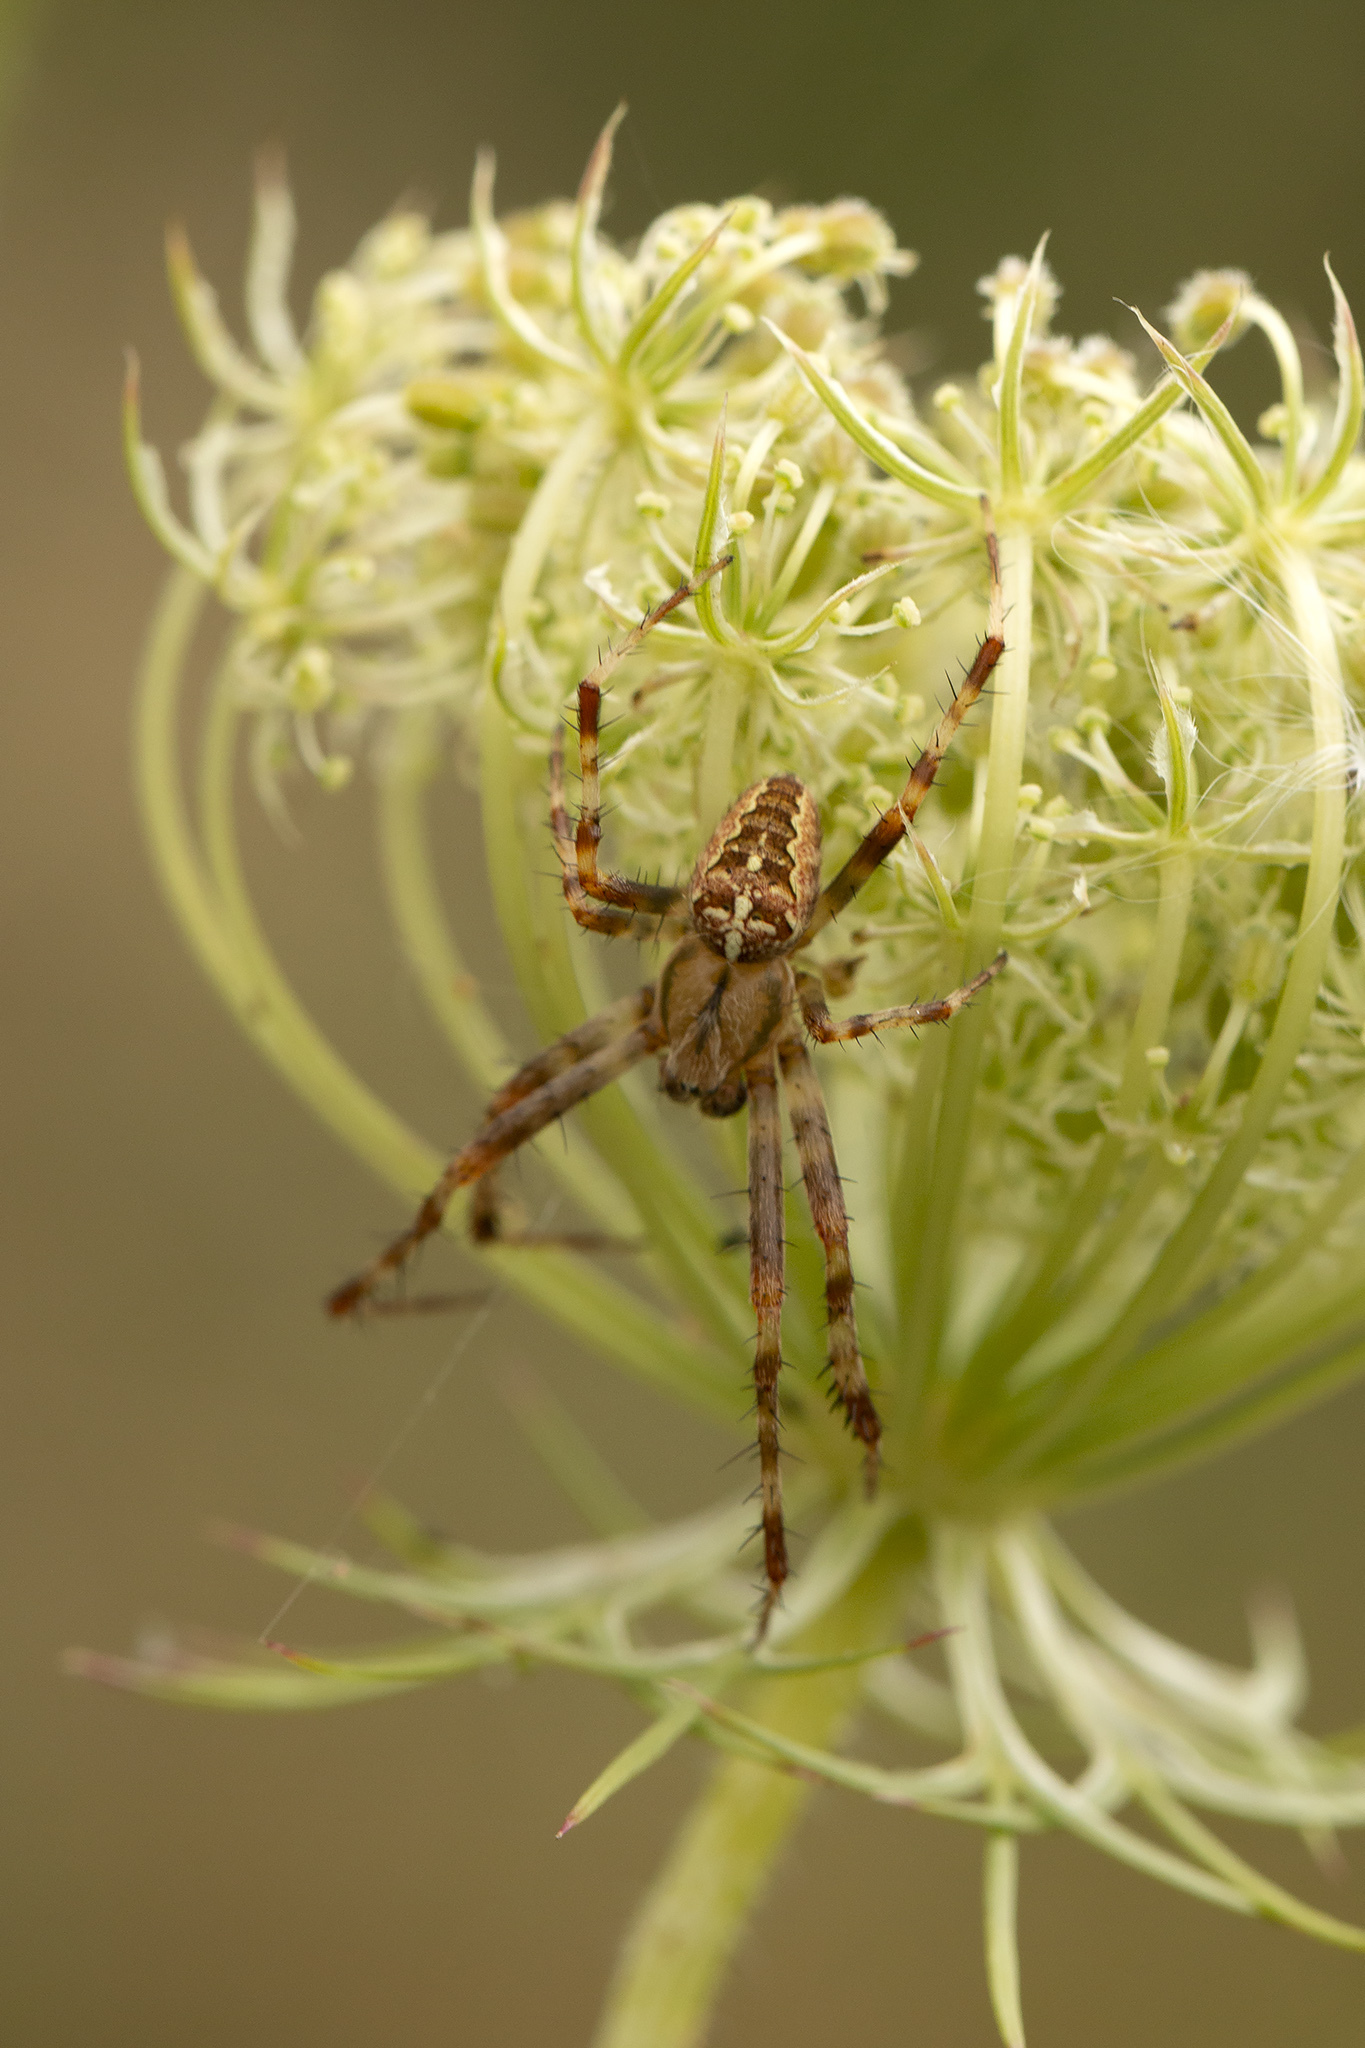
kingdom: Animalia
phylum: Arthropoda
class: Arachnida
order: Araneae
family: Araneidae
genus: Araneus
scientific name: Araneus diadematus
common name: Cross orbweaver
